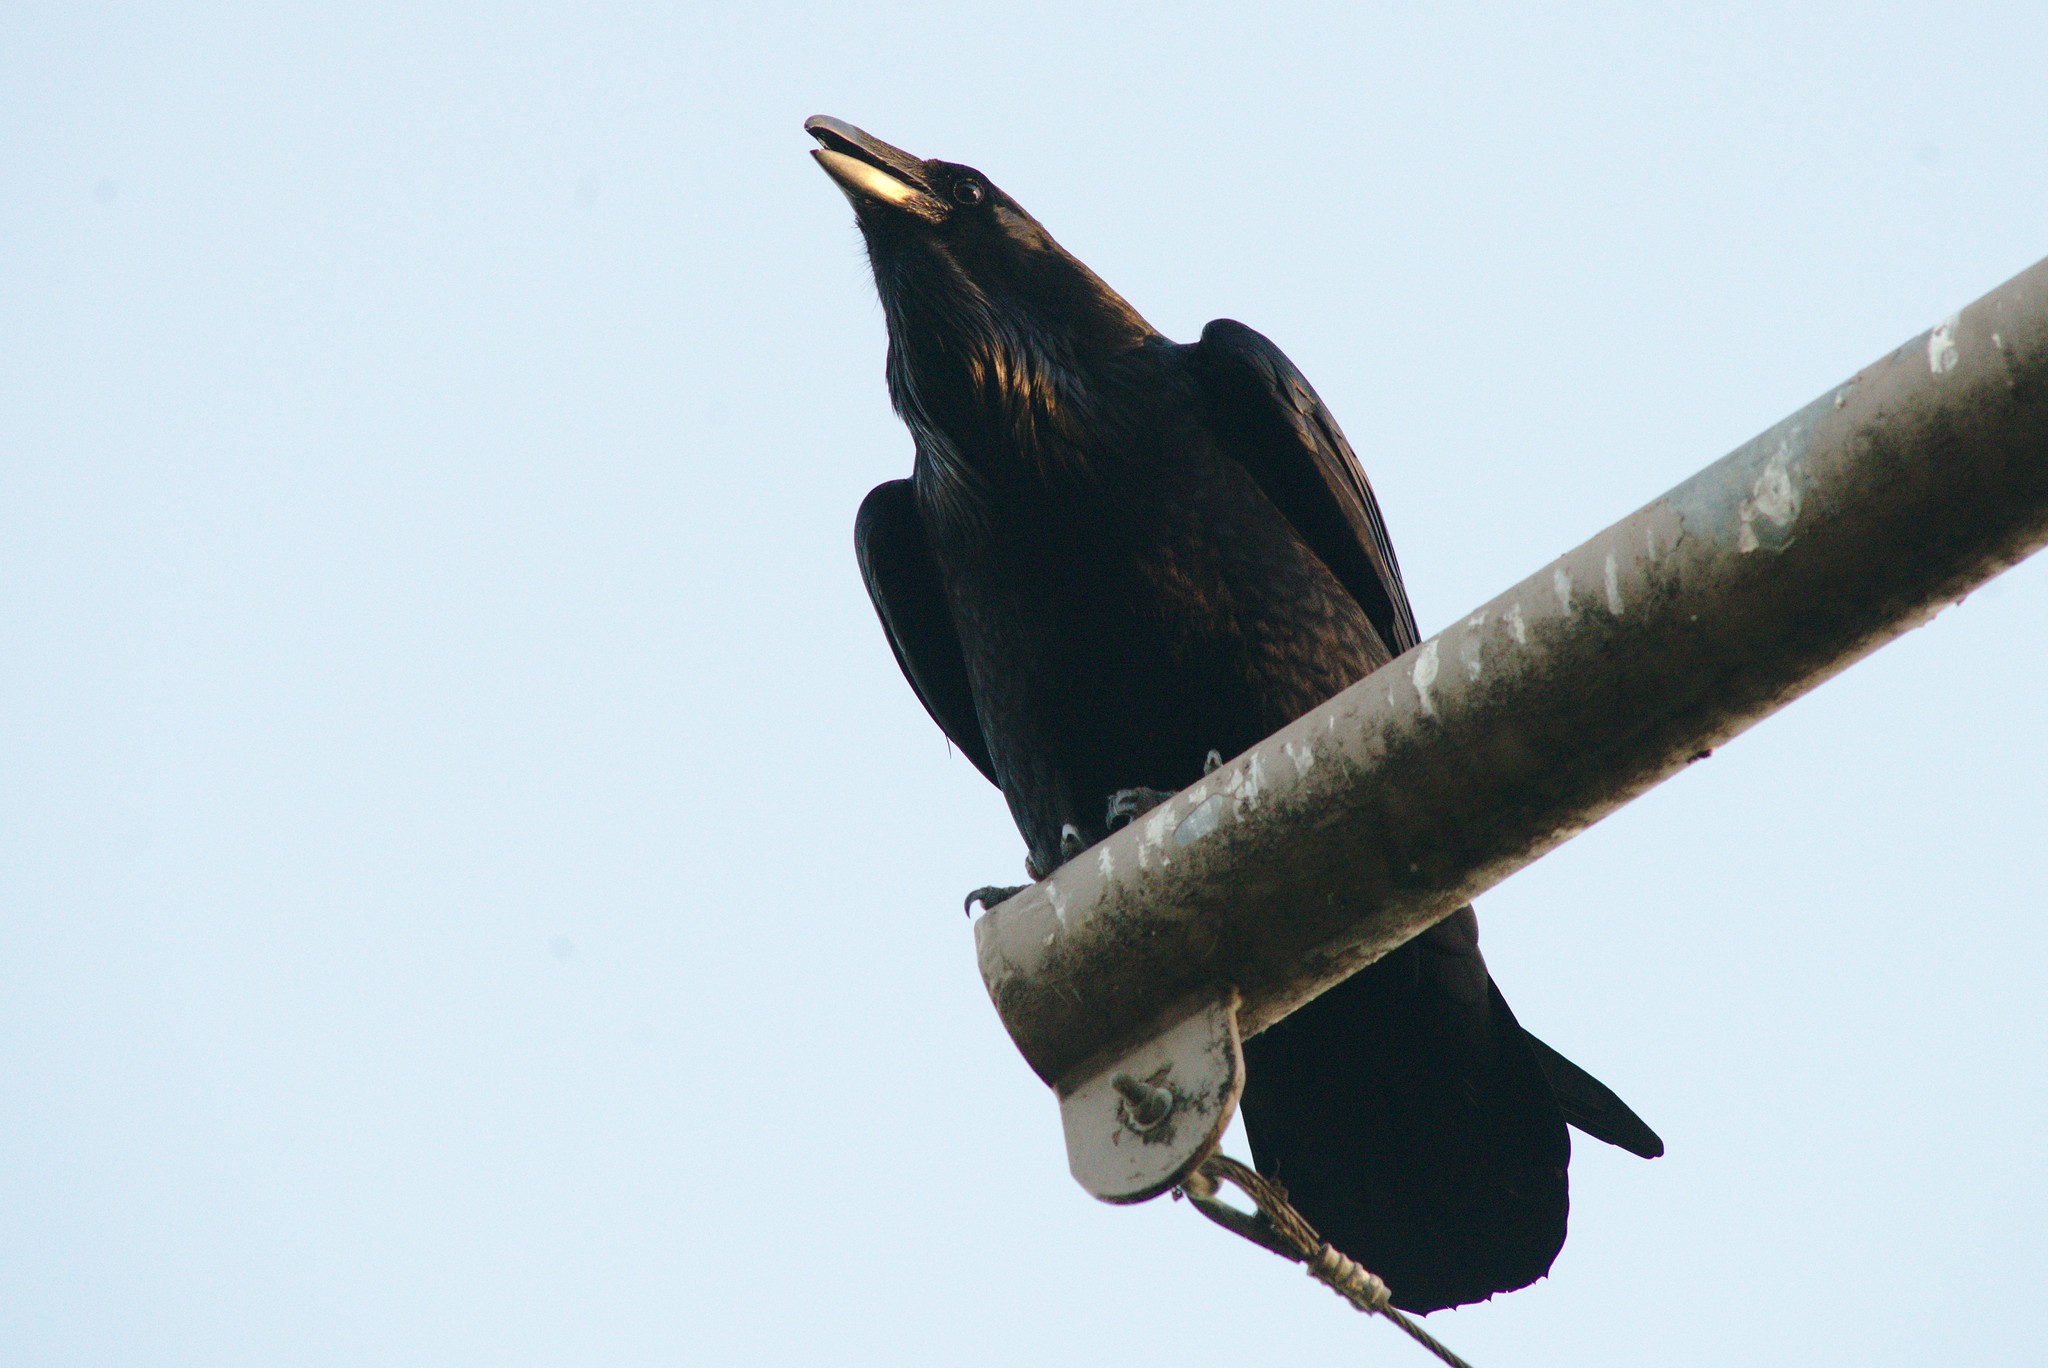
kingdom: Animalia
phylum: Chordata
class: Aves
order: Passeriformes
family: Corvidae
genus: Corvus
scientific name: Corvus corax
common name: Common raven
